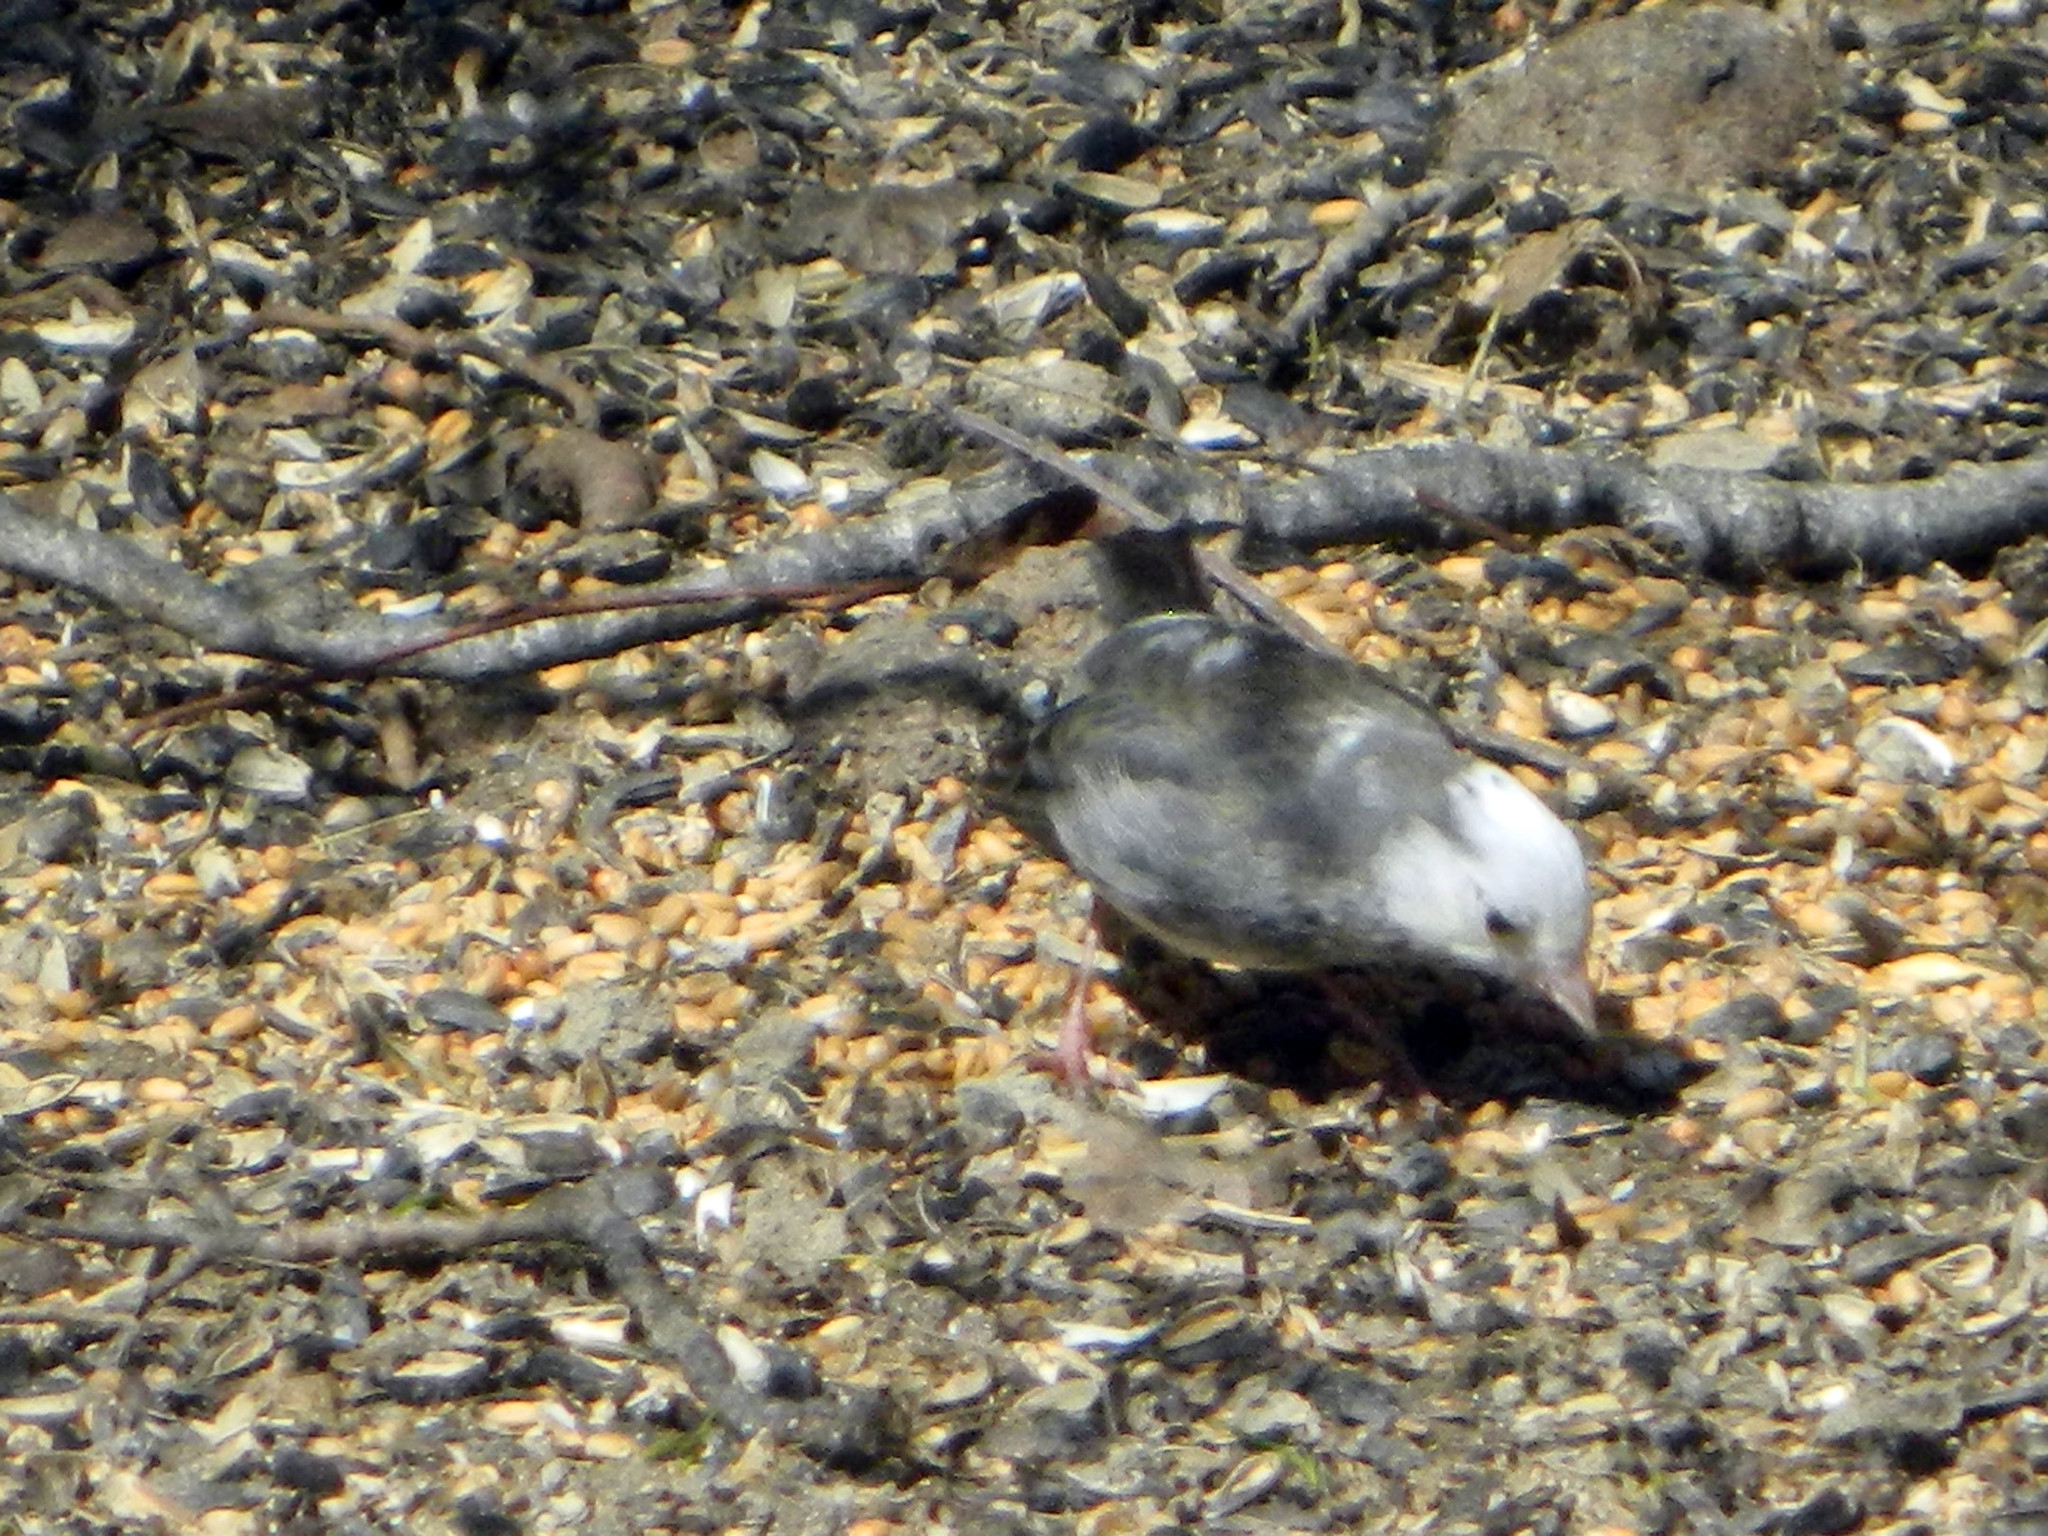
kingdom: Animalia
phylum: Chordata
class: Aves
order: Passeriformes
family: Passerellidae
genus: Junco
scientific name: Junco hyemalis
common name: Dark-eyed junco
